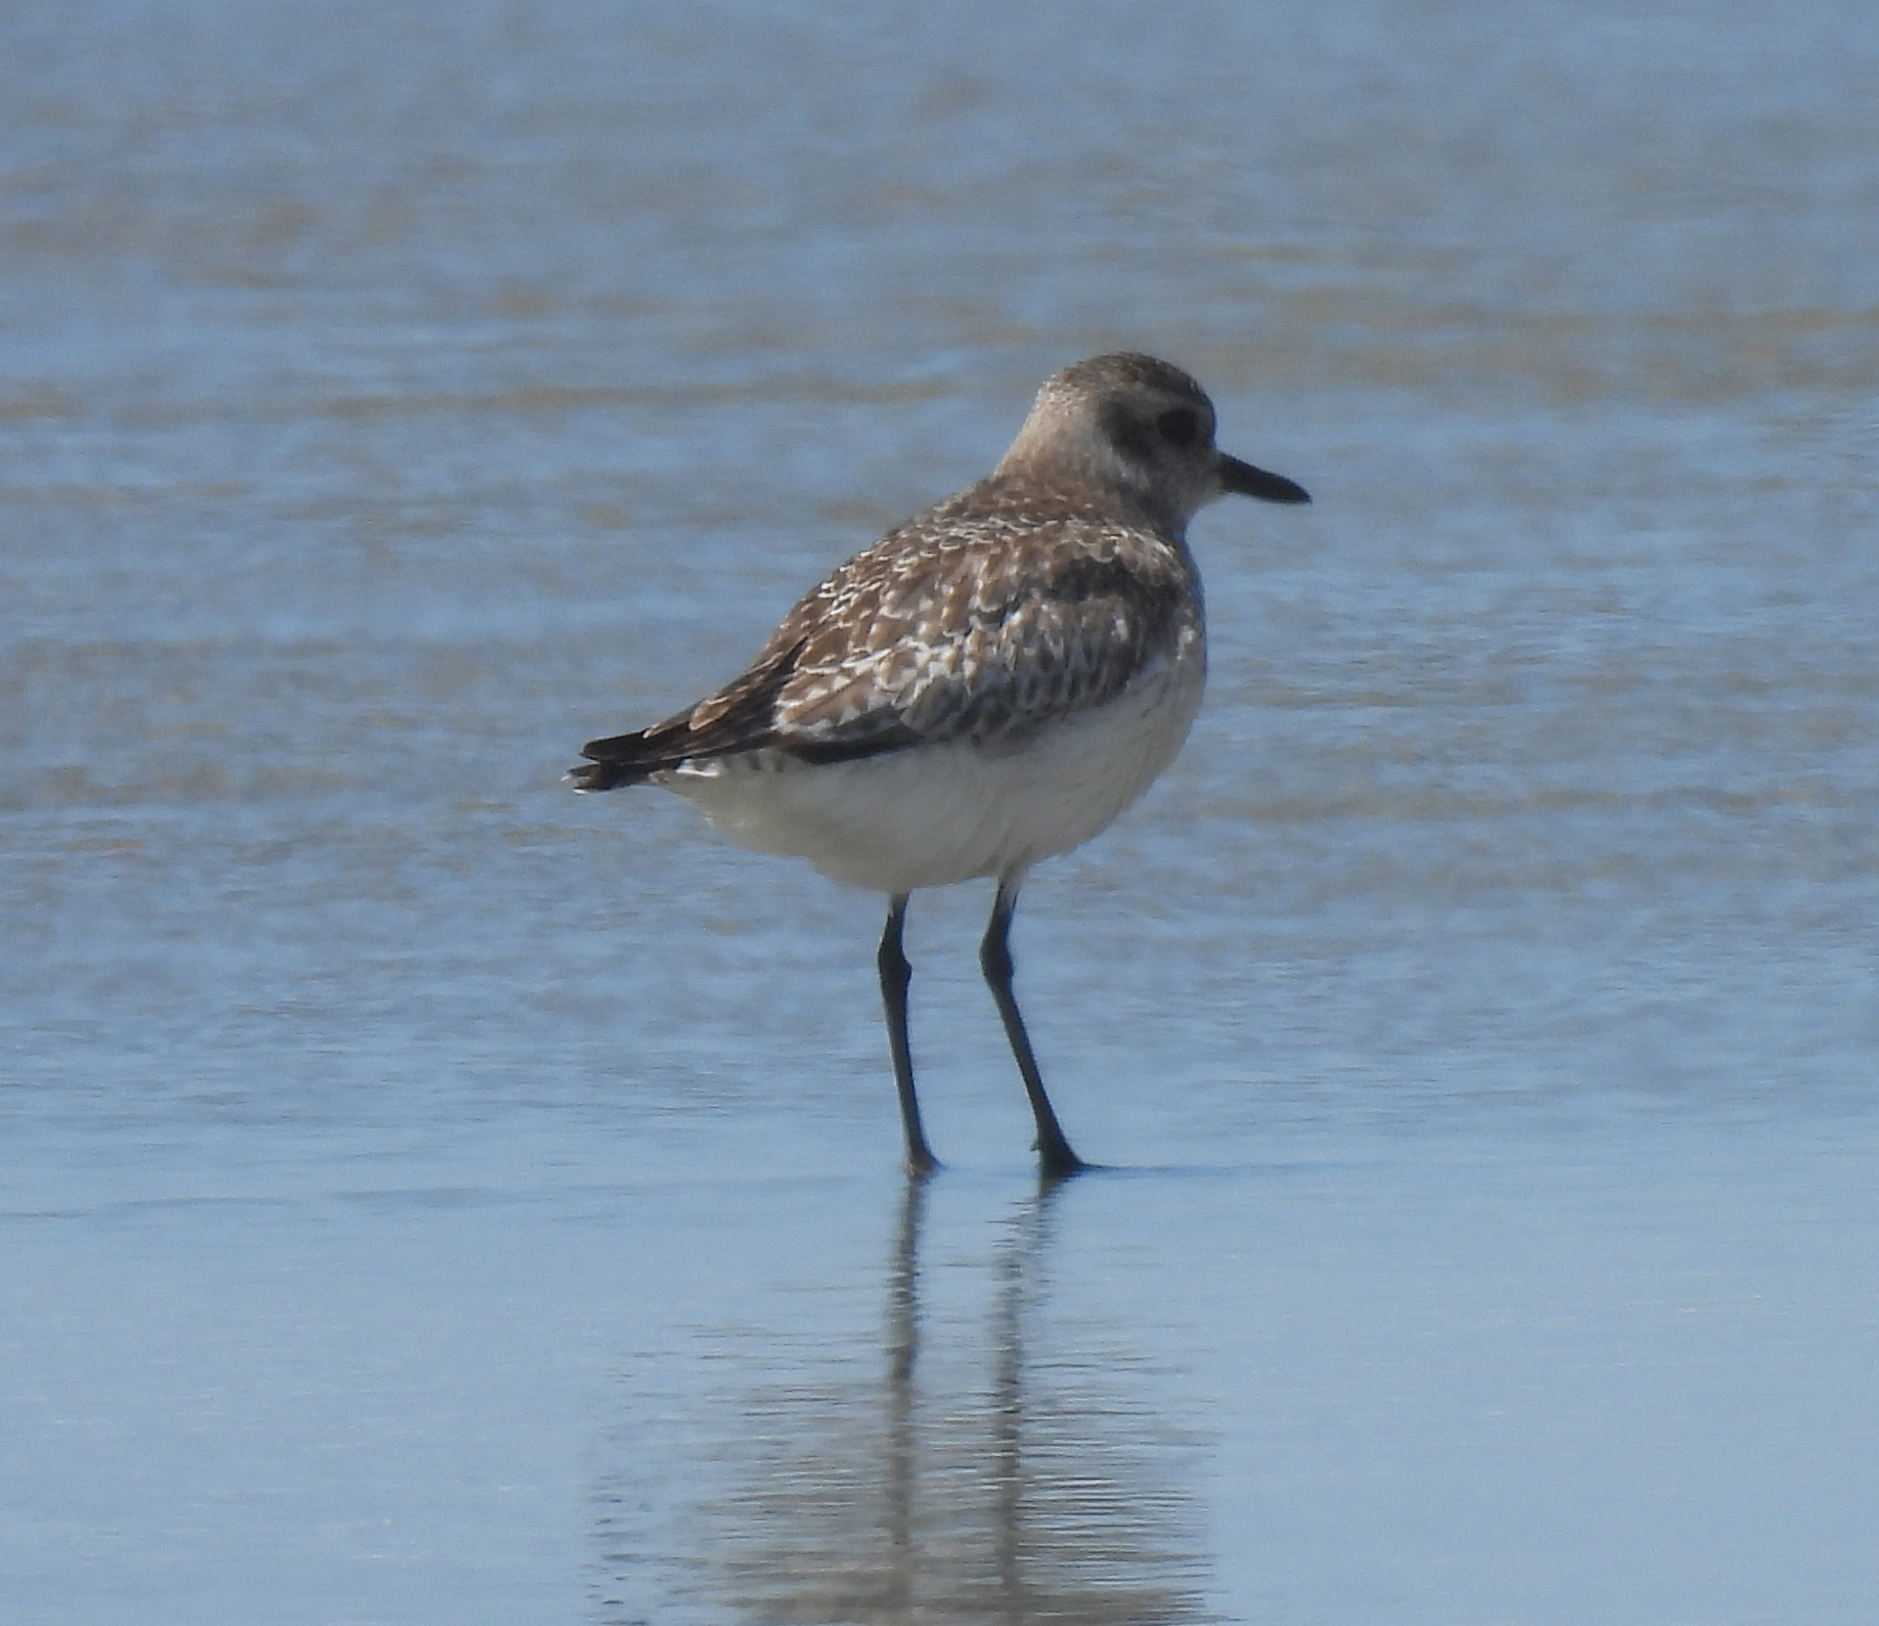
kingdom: Animalia
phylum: Chordata
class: Aves
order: Charadriiformes
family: Charadriidae
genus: Pluvialis
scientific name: Pluvialis squatarola
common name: Grey plover
